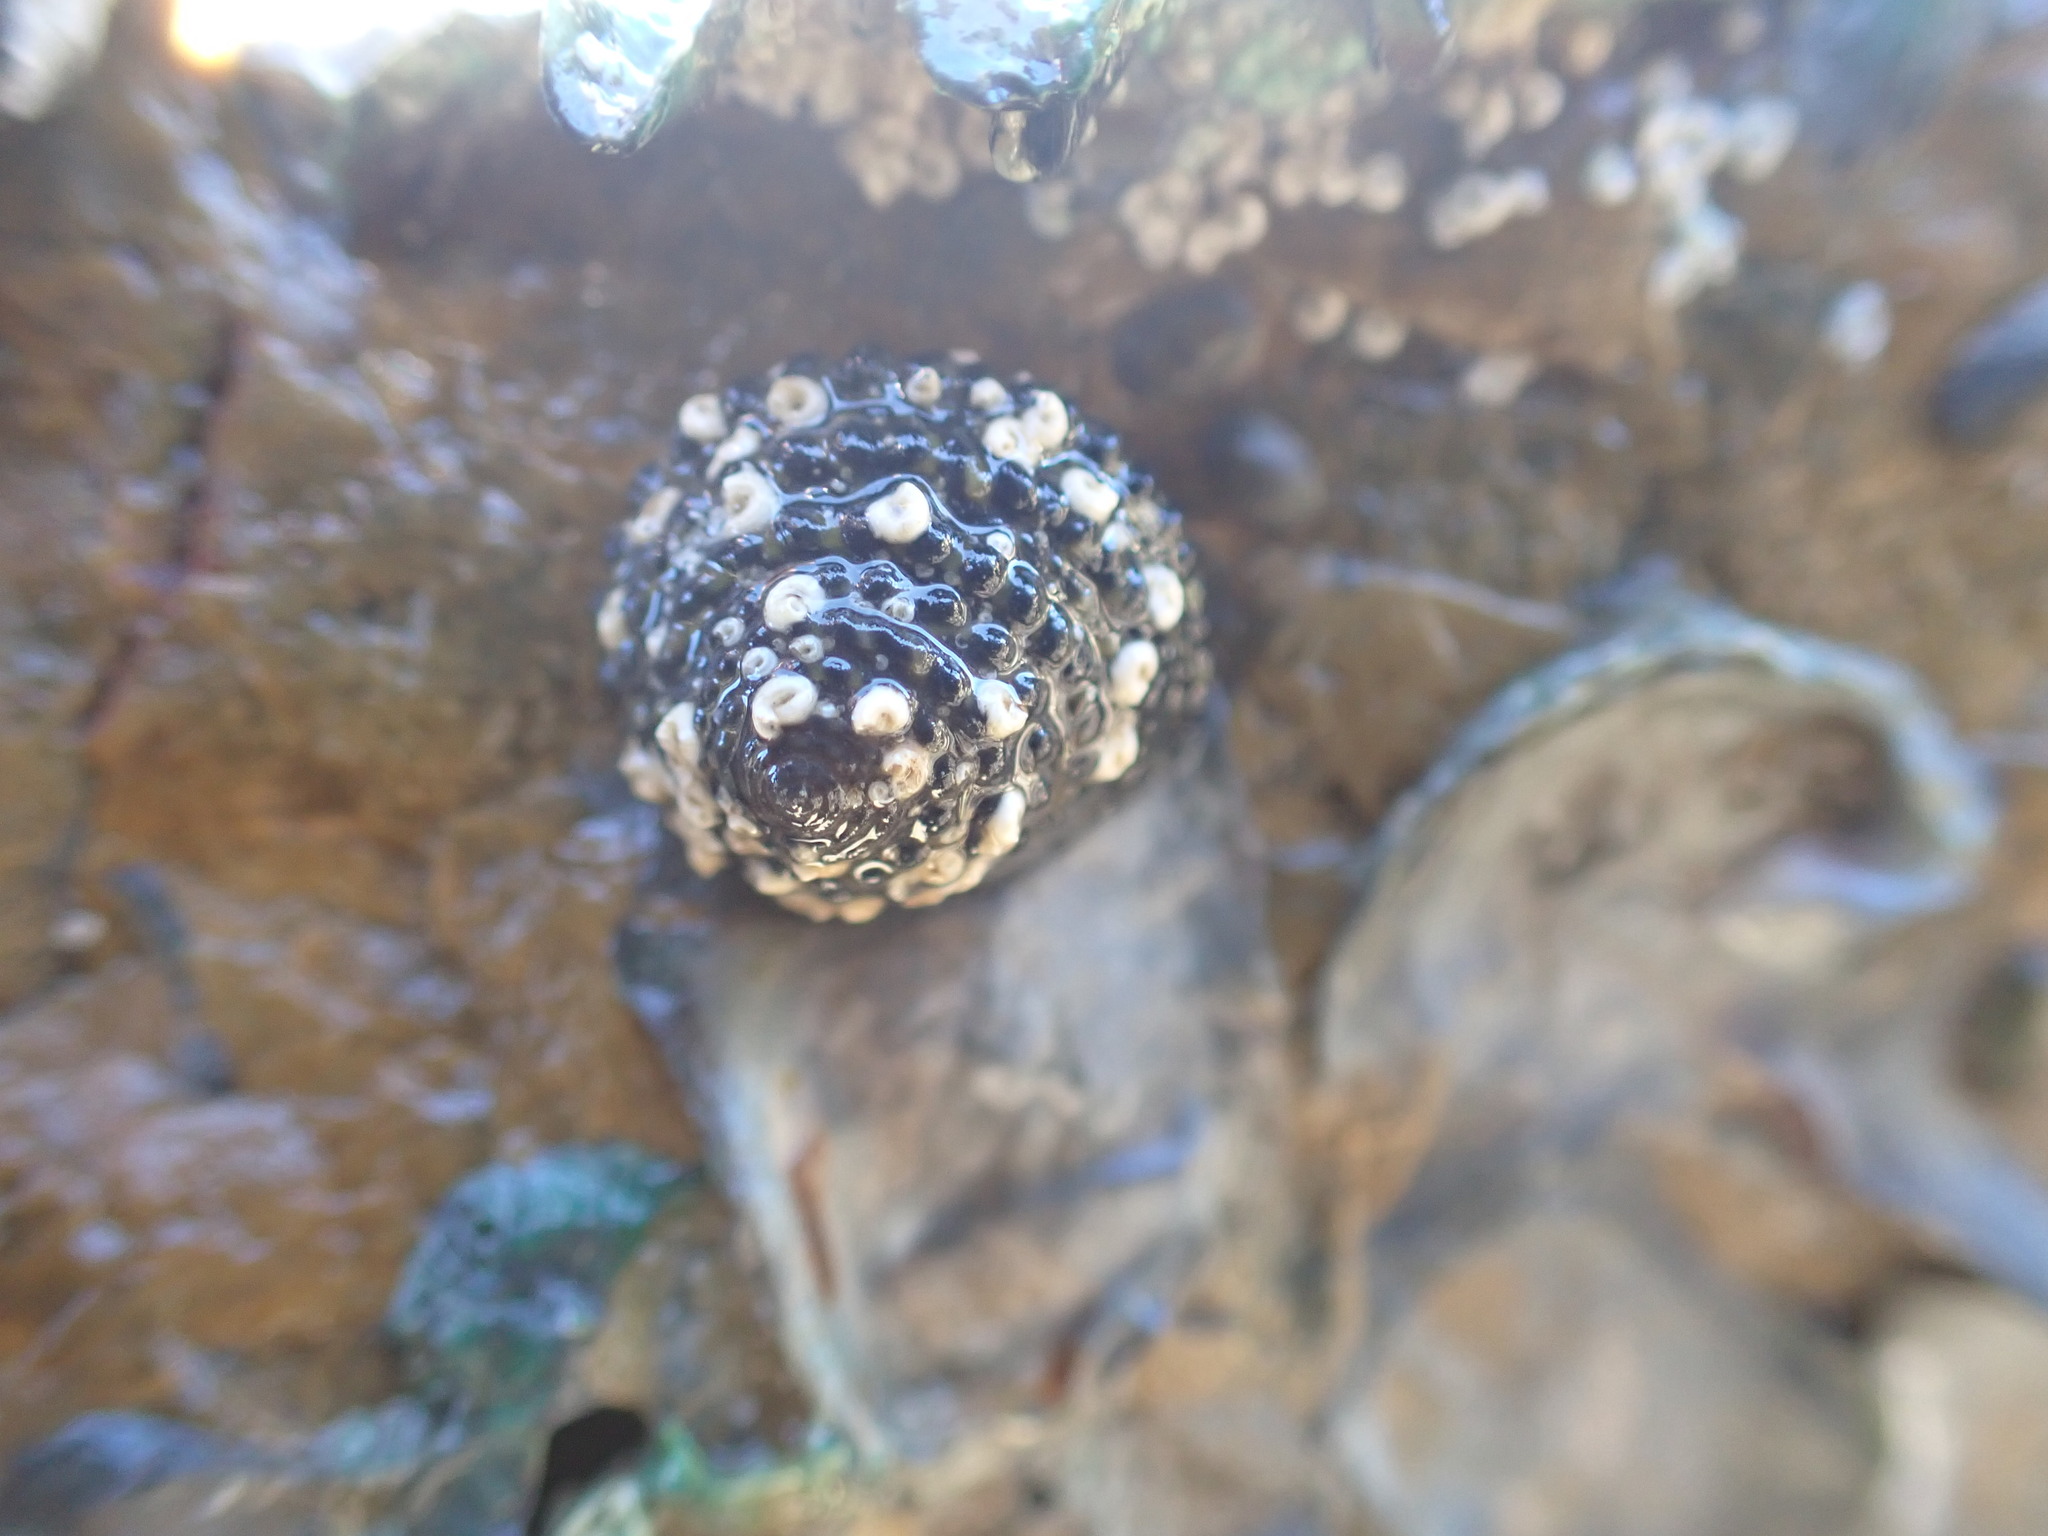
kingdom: Animalia
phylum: Mollusca
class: Gastropoda
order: Trochida
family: Trochidae
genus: Diloma
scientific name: Diloma bicanaliculatum
